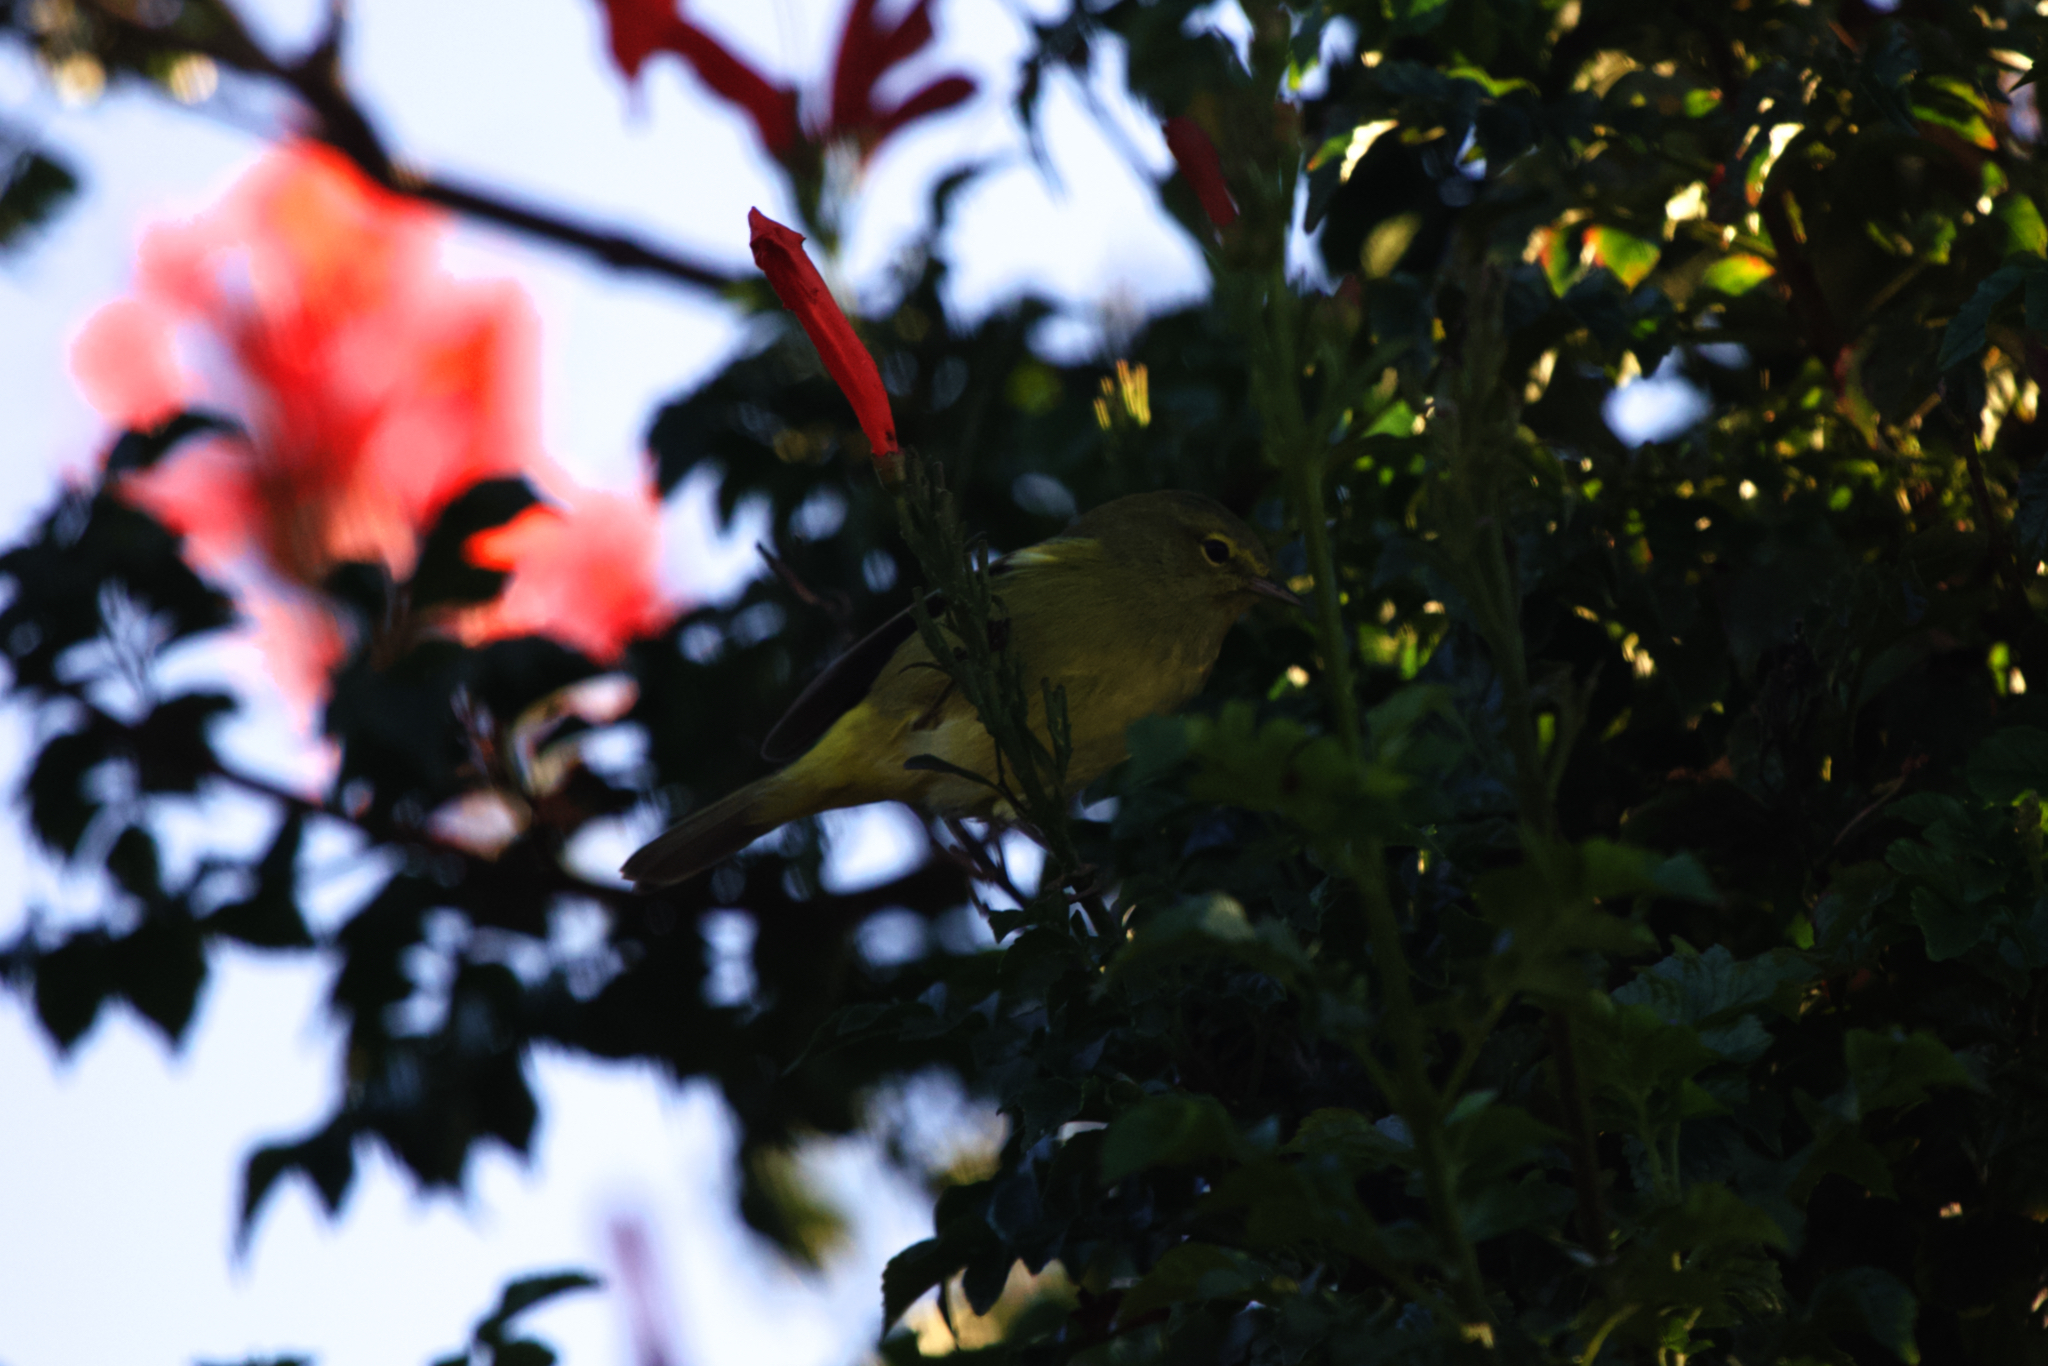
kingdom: Animalia
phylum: Chordata
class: Aves
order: Passeriformes
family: Parulidae
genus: Leiothlypis
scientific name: Leiothlypis celata
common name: Orange-crowned warbler
